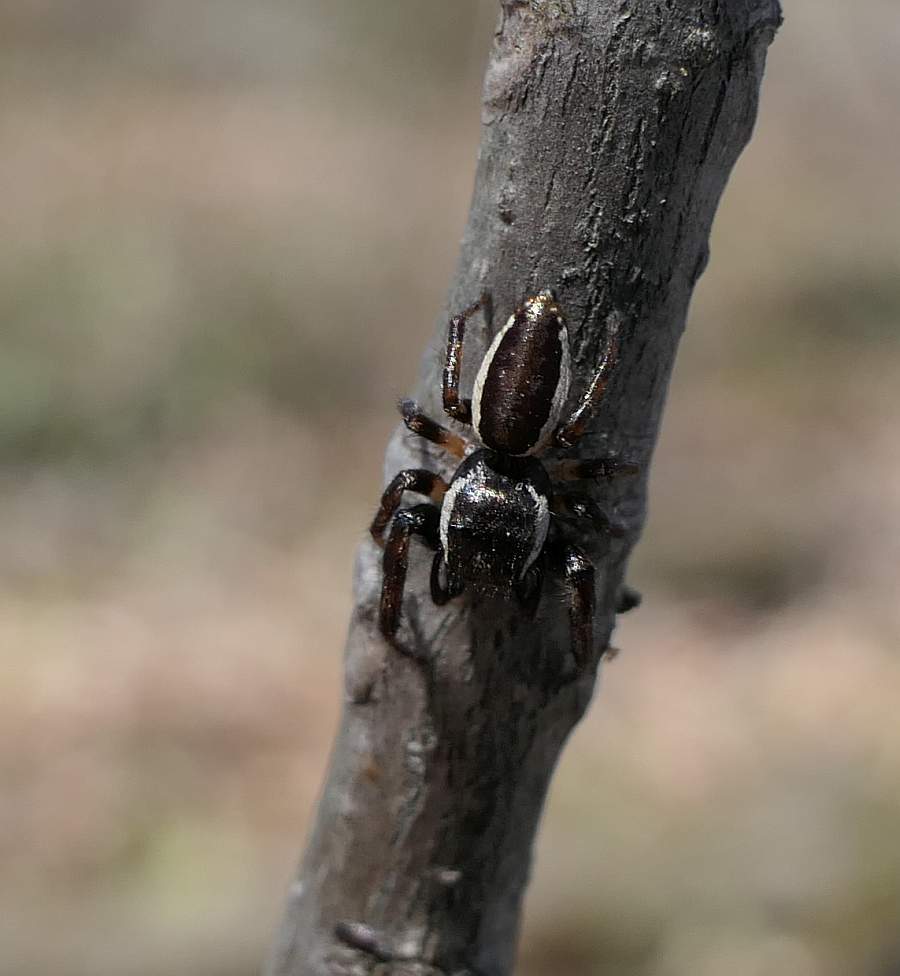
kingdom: Animalia
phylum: Arthropoda
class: Arachnida
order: Araneae
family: Salticidae
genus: Eris
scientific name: Eris militaris
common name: Bronze jumper
